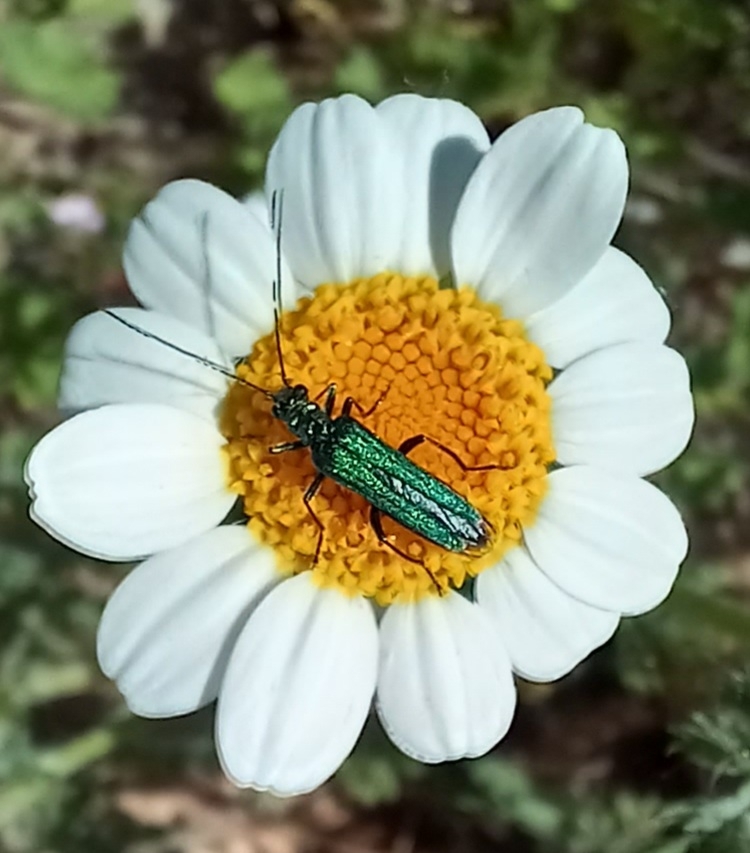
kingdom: Animalia
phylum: Arthropoda
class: Insecta
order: Coleoptera
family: Oedemeridae
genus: Oedemera
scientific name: Oedemera nobilis
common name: Swollen-thighed beetle
